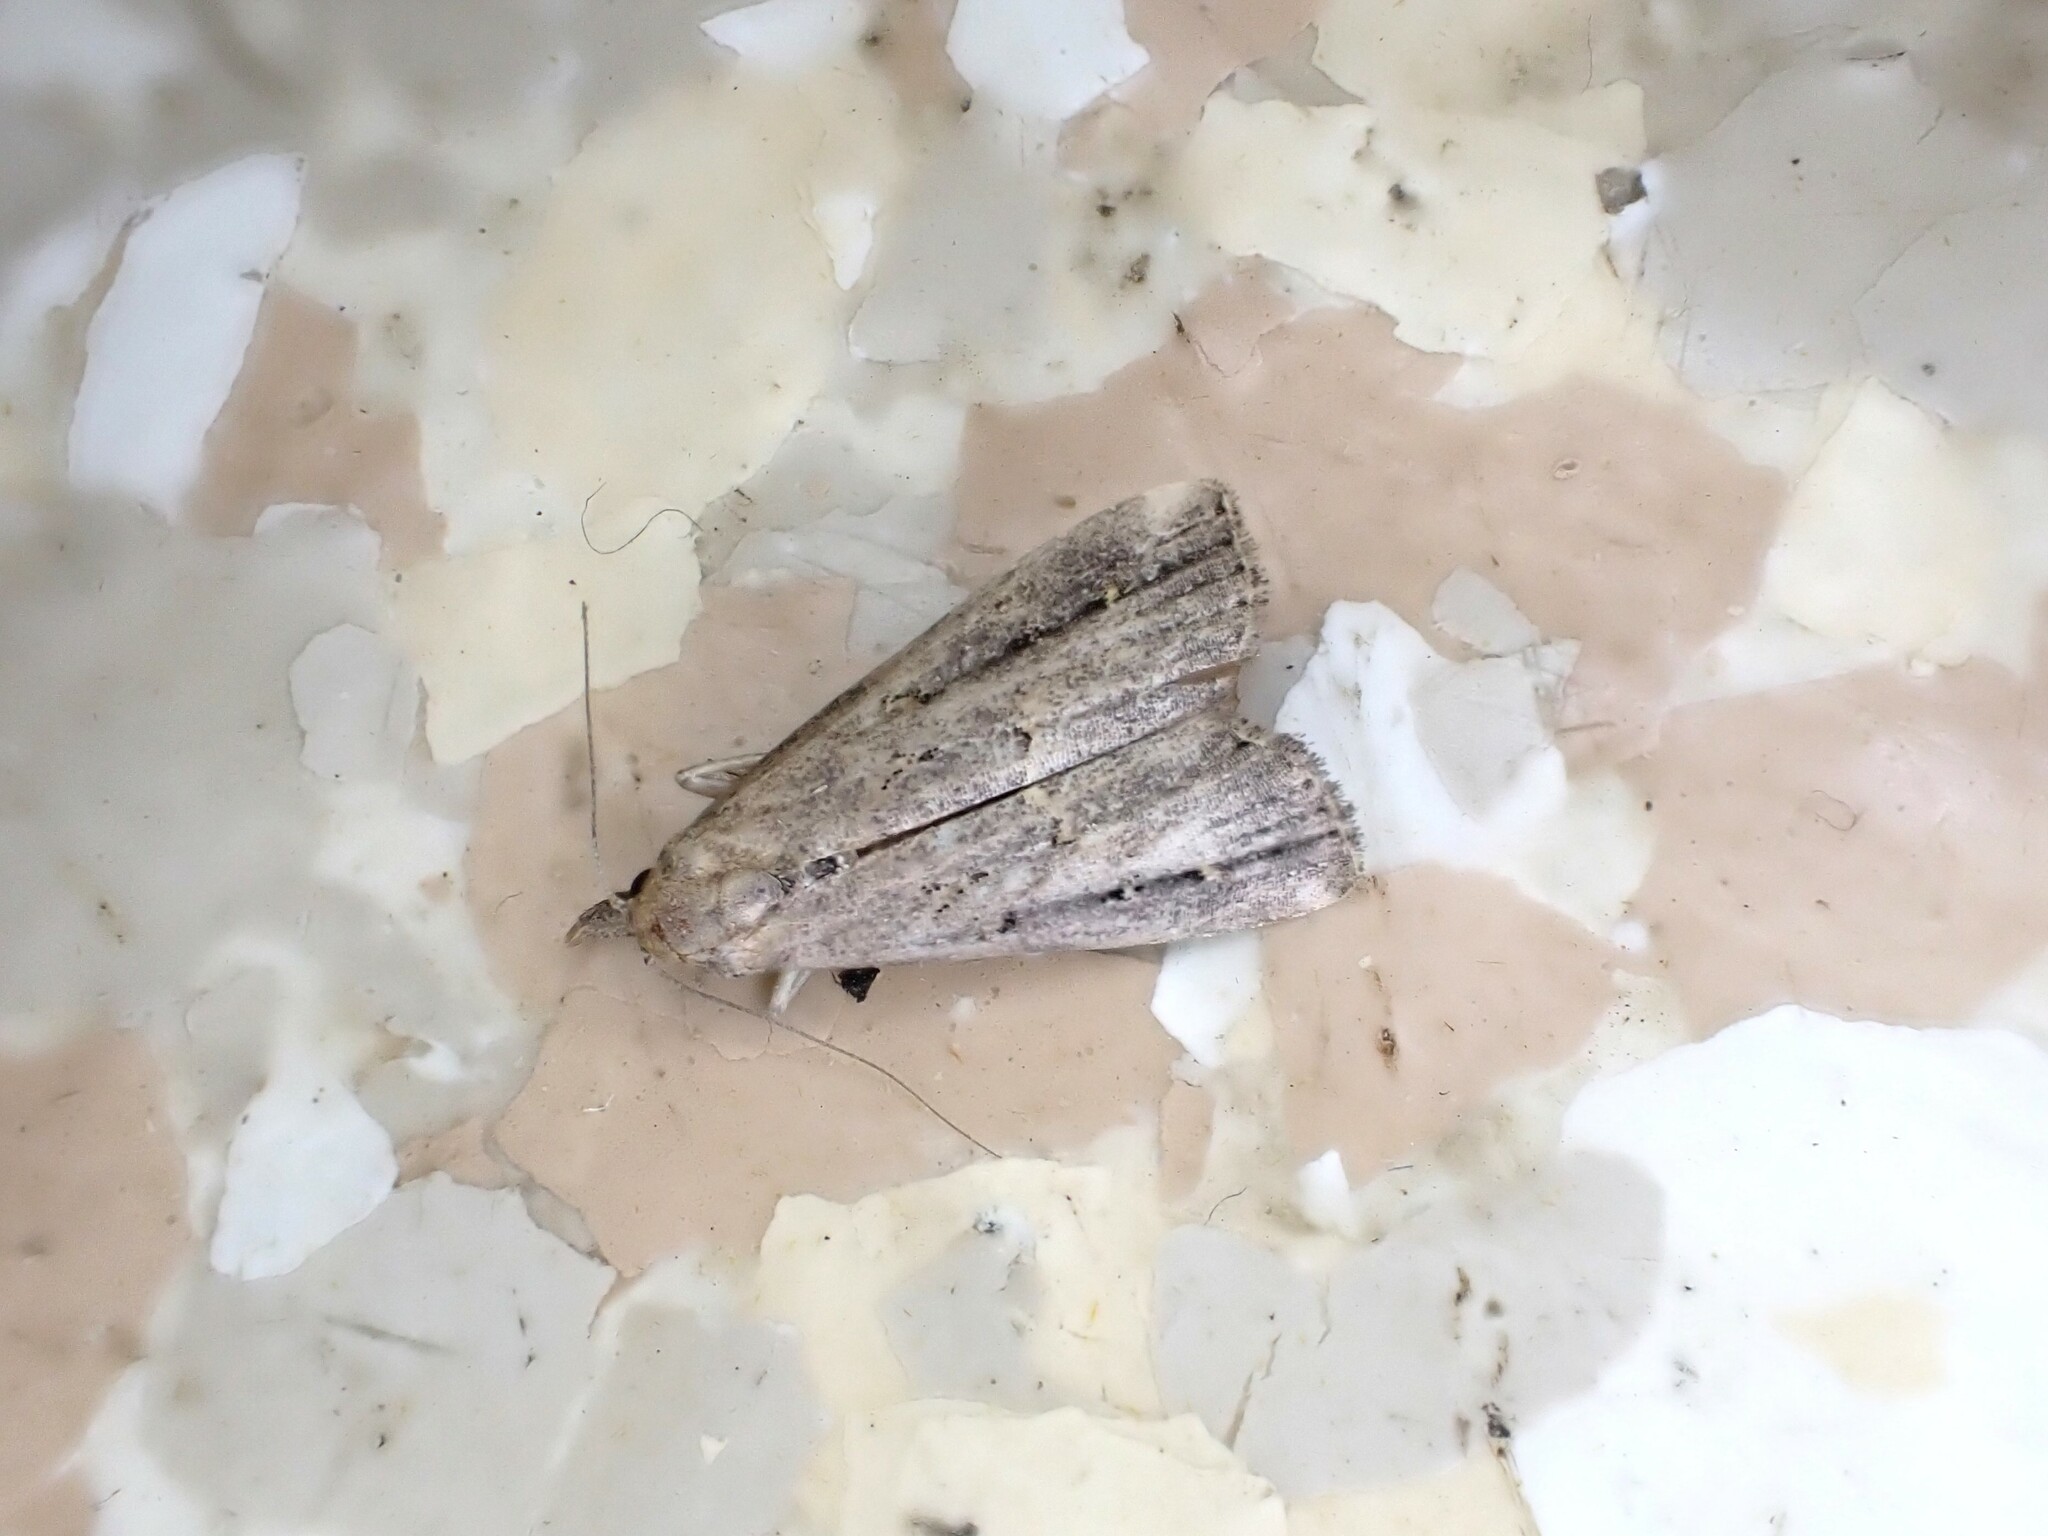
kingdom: Animalia
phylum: Arthropoda
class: Insecta
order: Lepidoptera
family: Erebidae
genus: Schrankia
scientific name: Schrankia costaestrigalis
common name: Pinion-streaked snout
